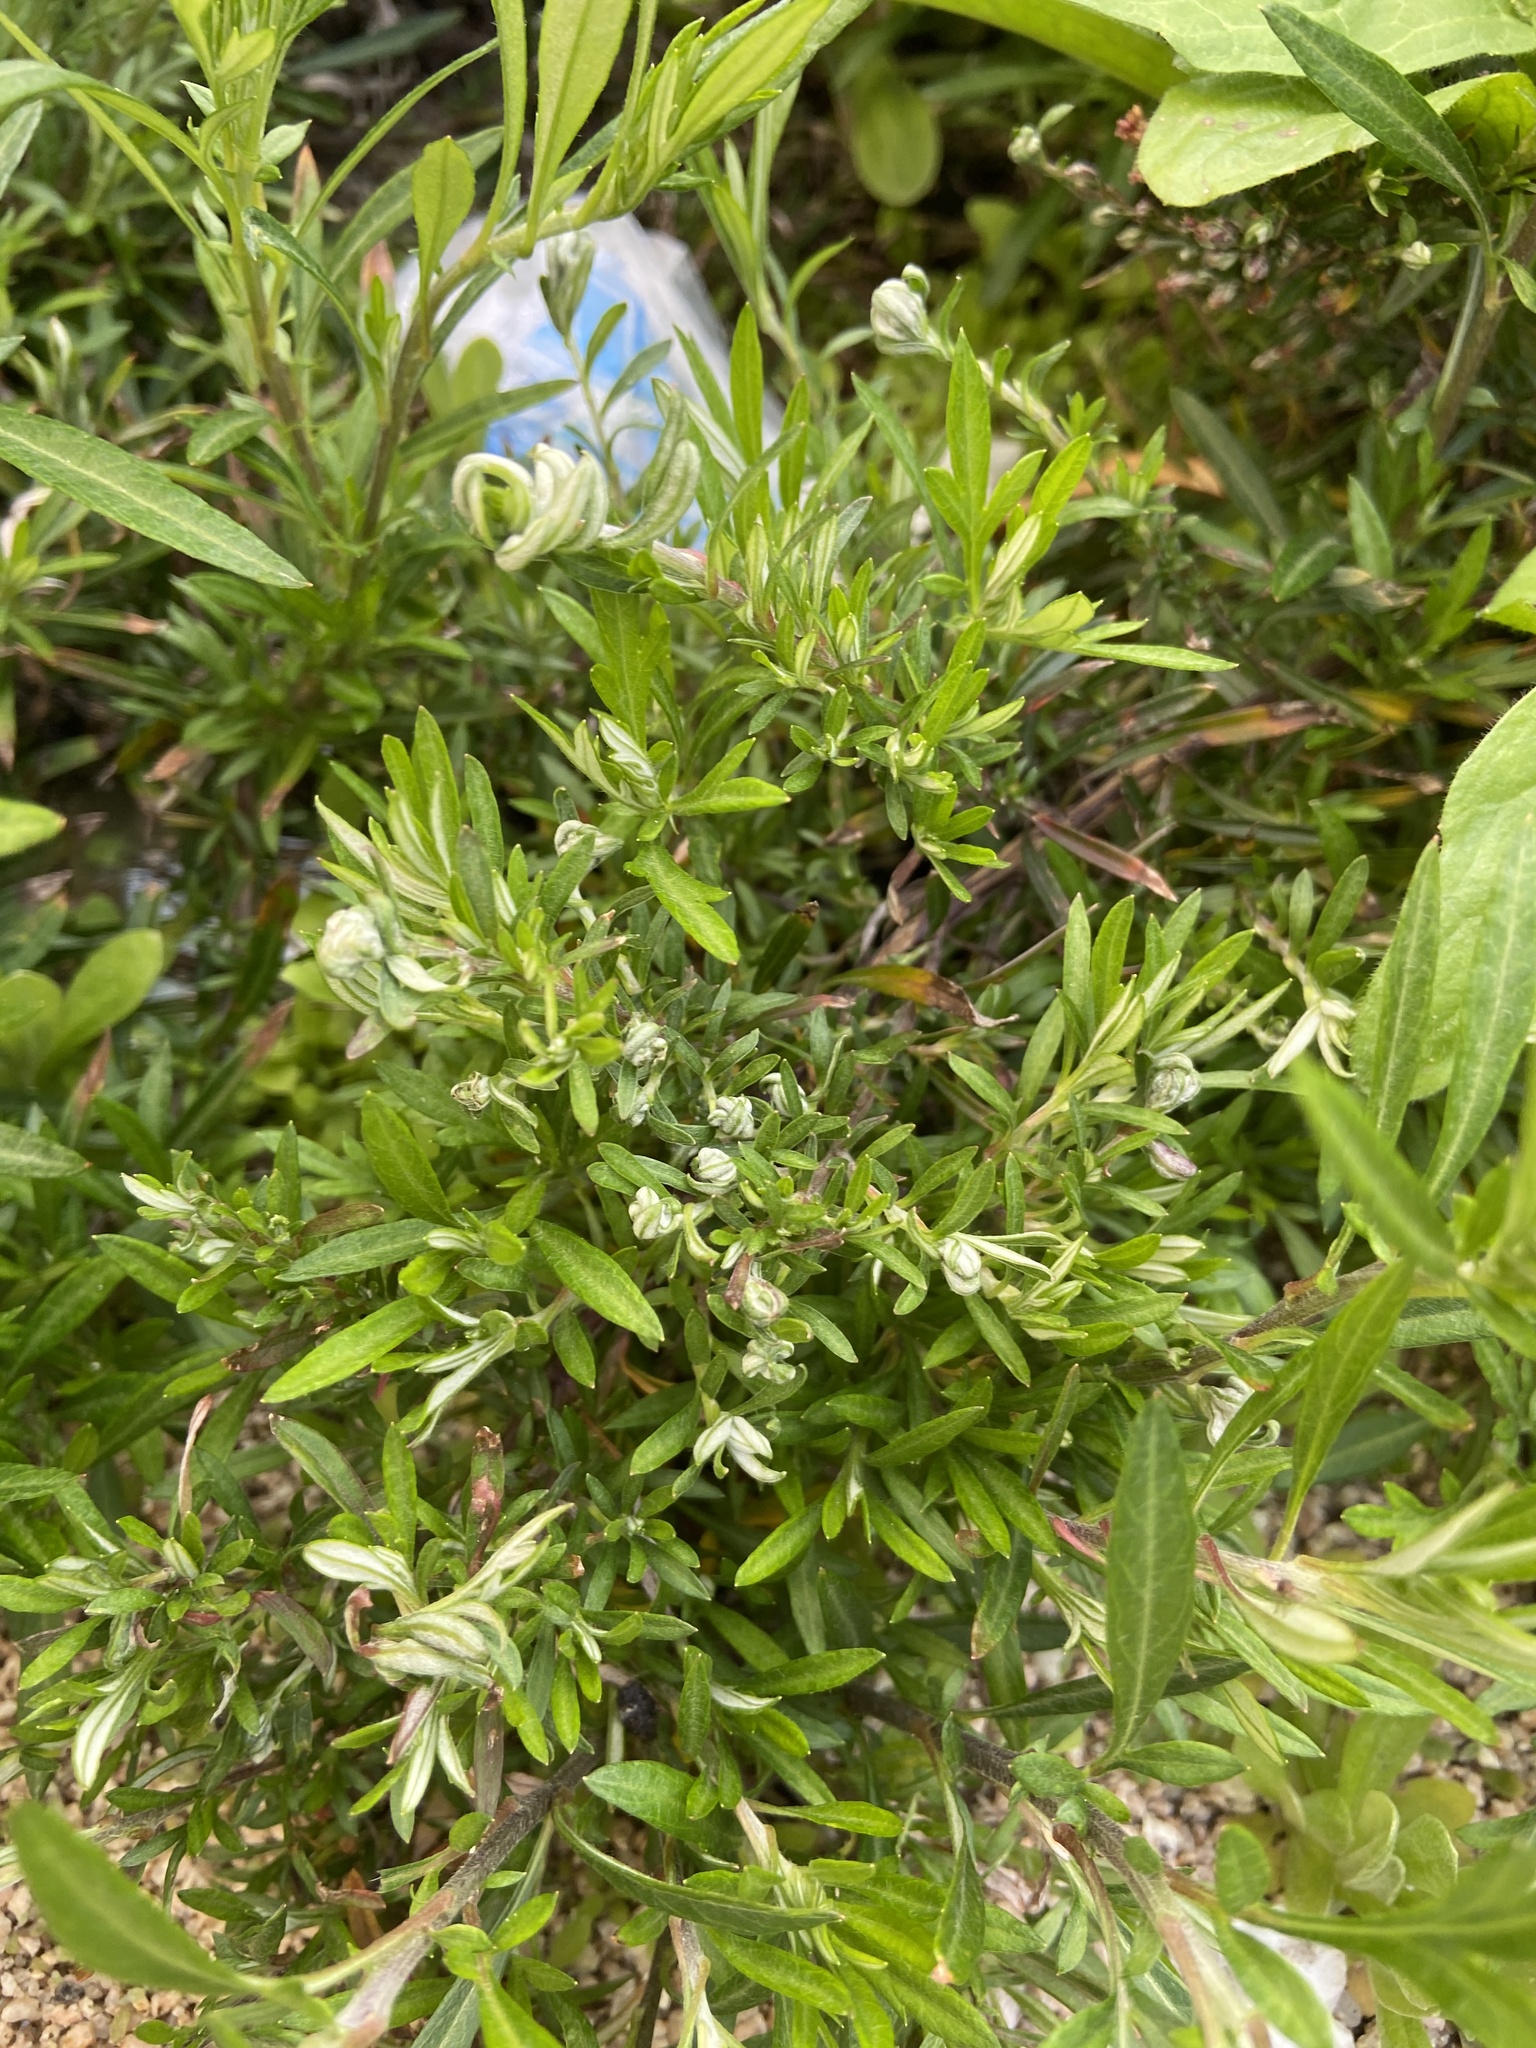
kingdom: Plantae
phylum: Tracheophyta
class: Magnoliopsida
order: Asterales
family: Asteraceae
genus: Artemisia
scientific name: Artemisia indica
